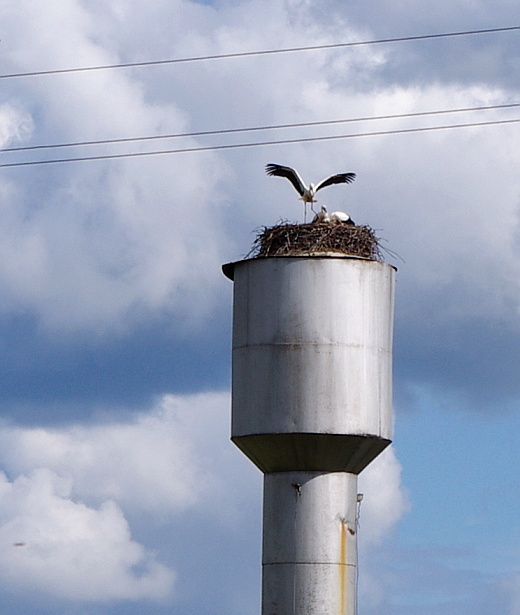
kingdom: Animalia
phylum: Chordata
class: Aves
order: Ciconiiformes
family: Ciconiidae
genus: Ciconia
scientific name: Ciconia ciconia
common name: White stork
